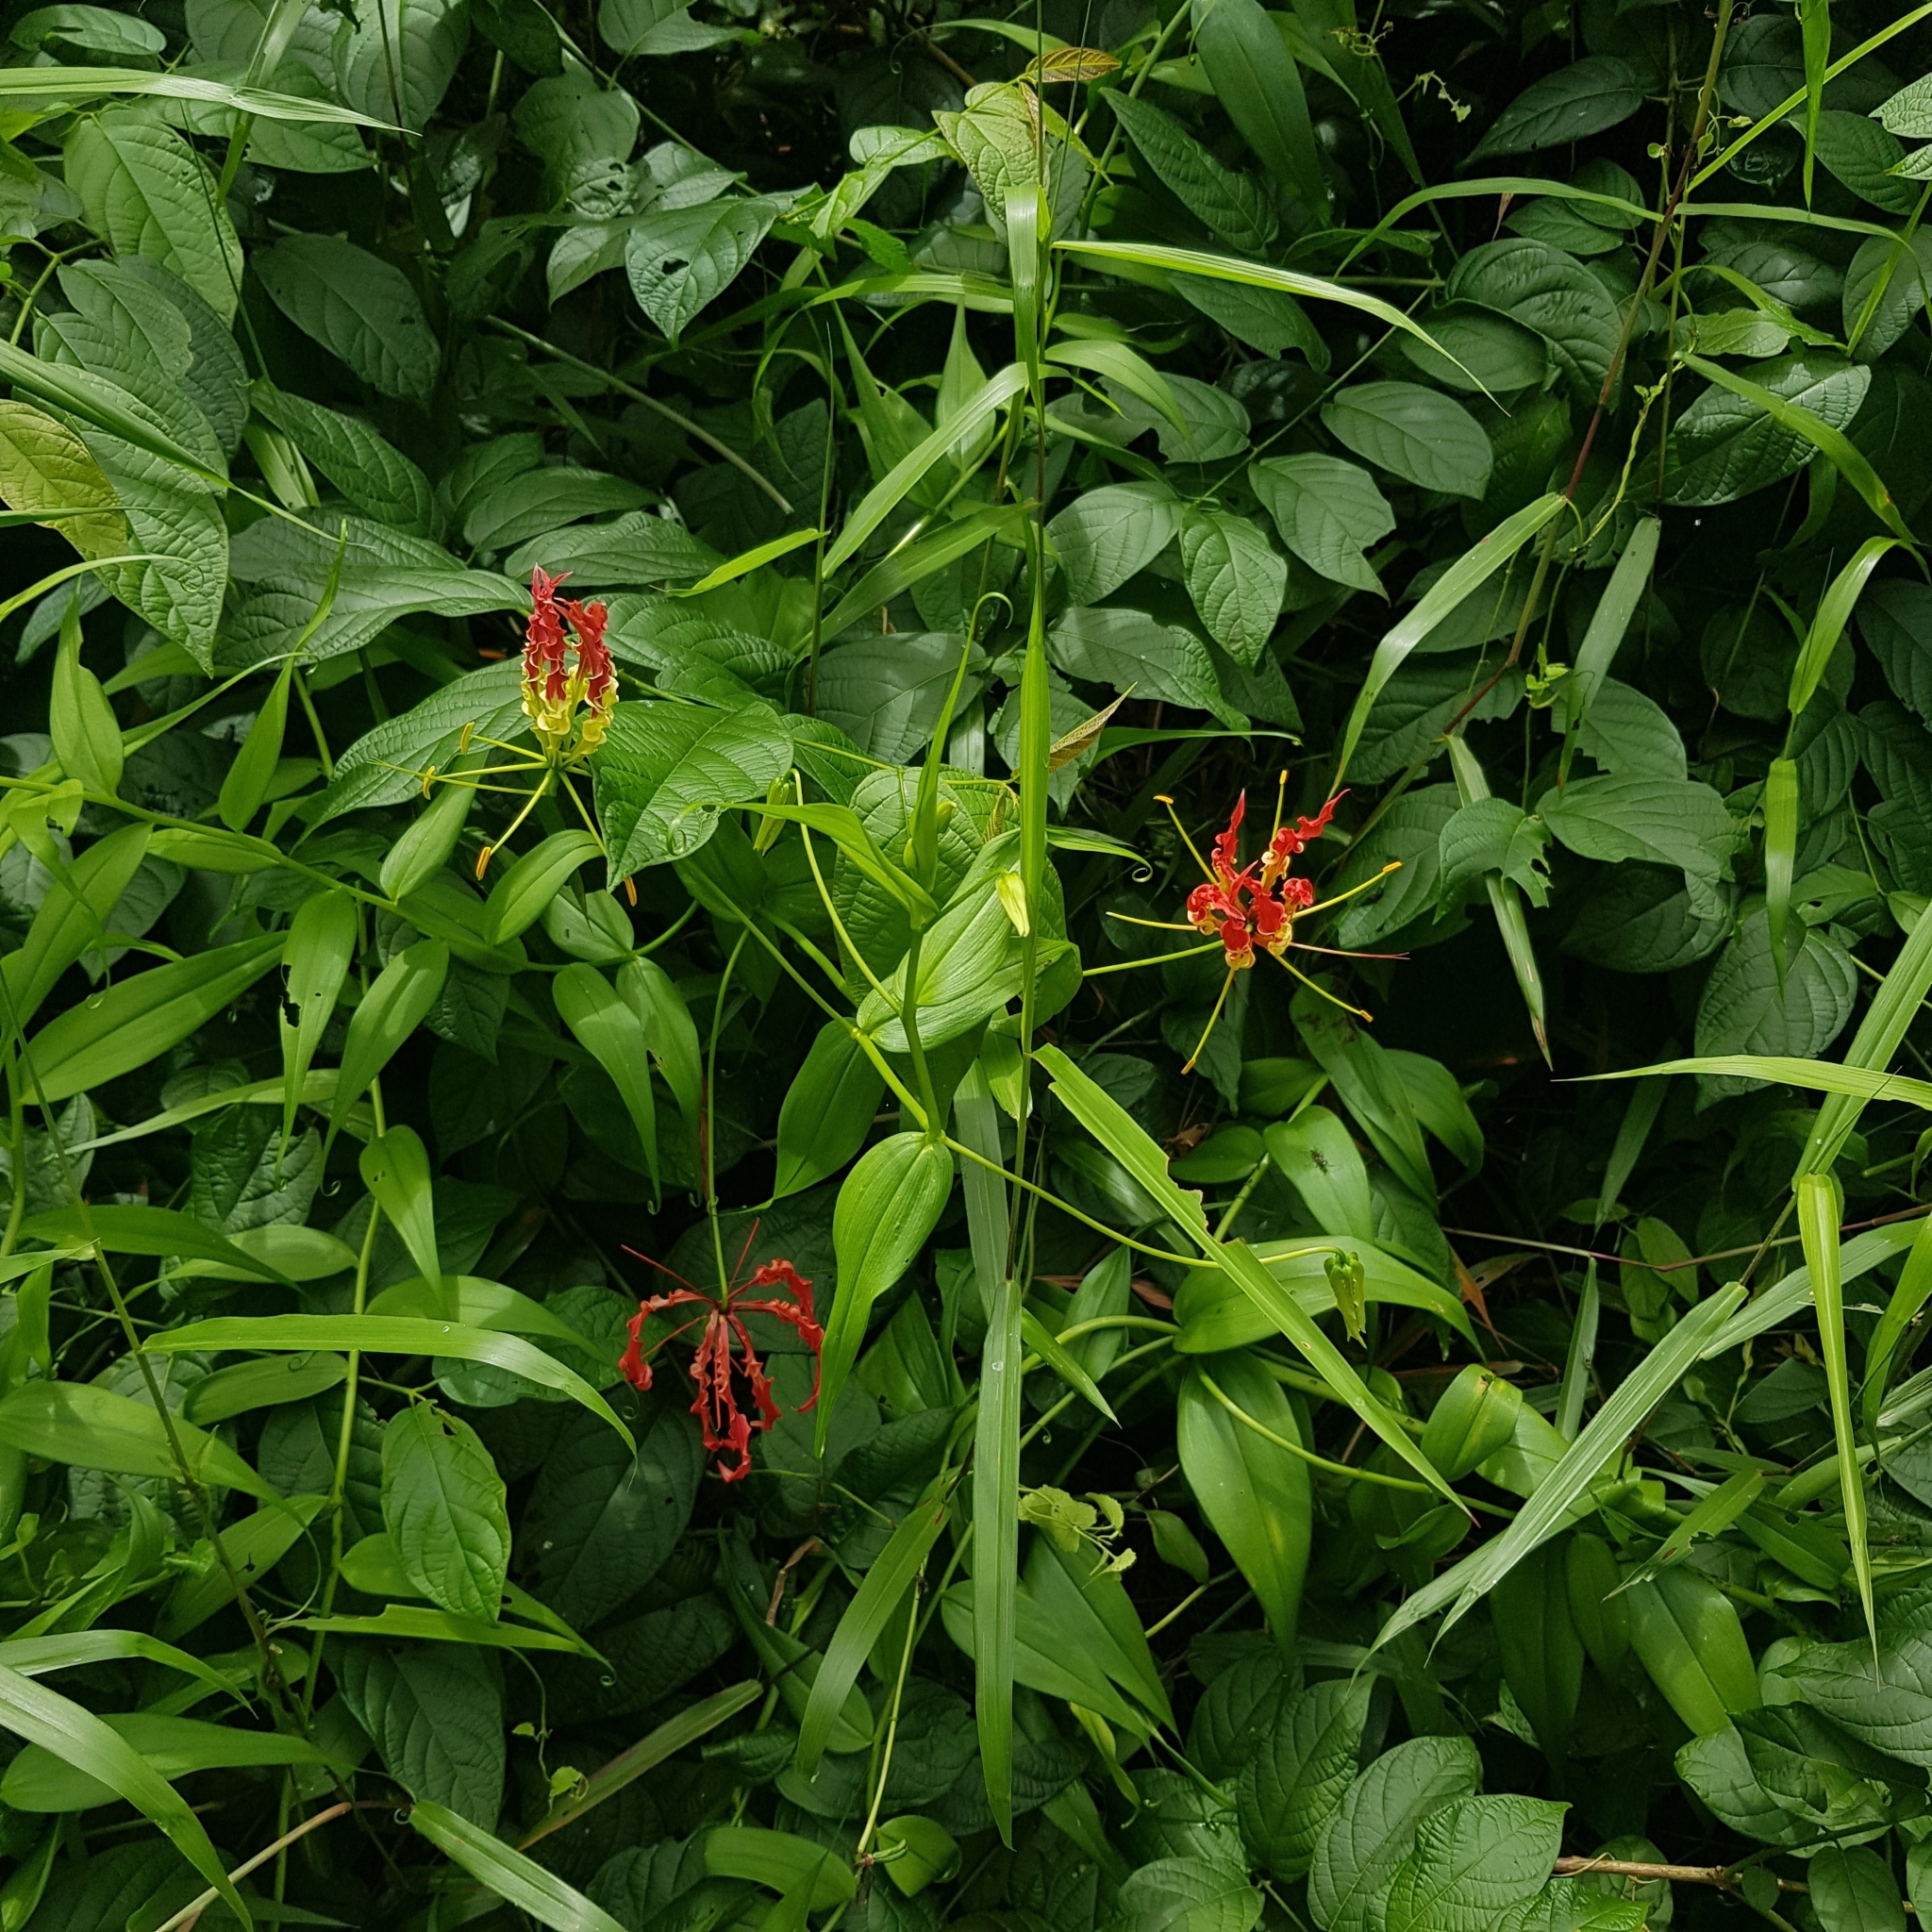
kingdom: Plantae
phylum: Tracheophyta
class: Liliopsida
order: Liliales
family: Colchicaceae
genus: Gloriosa
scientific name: Gloriosa superba
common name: Flame lily
